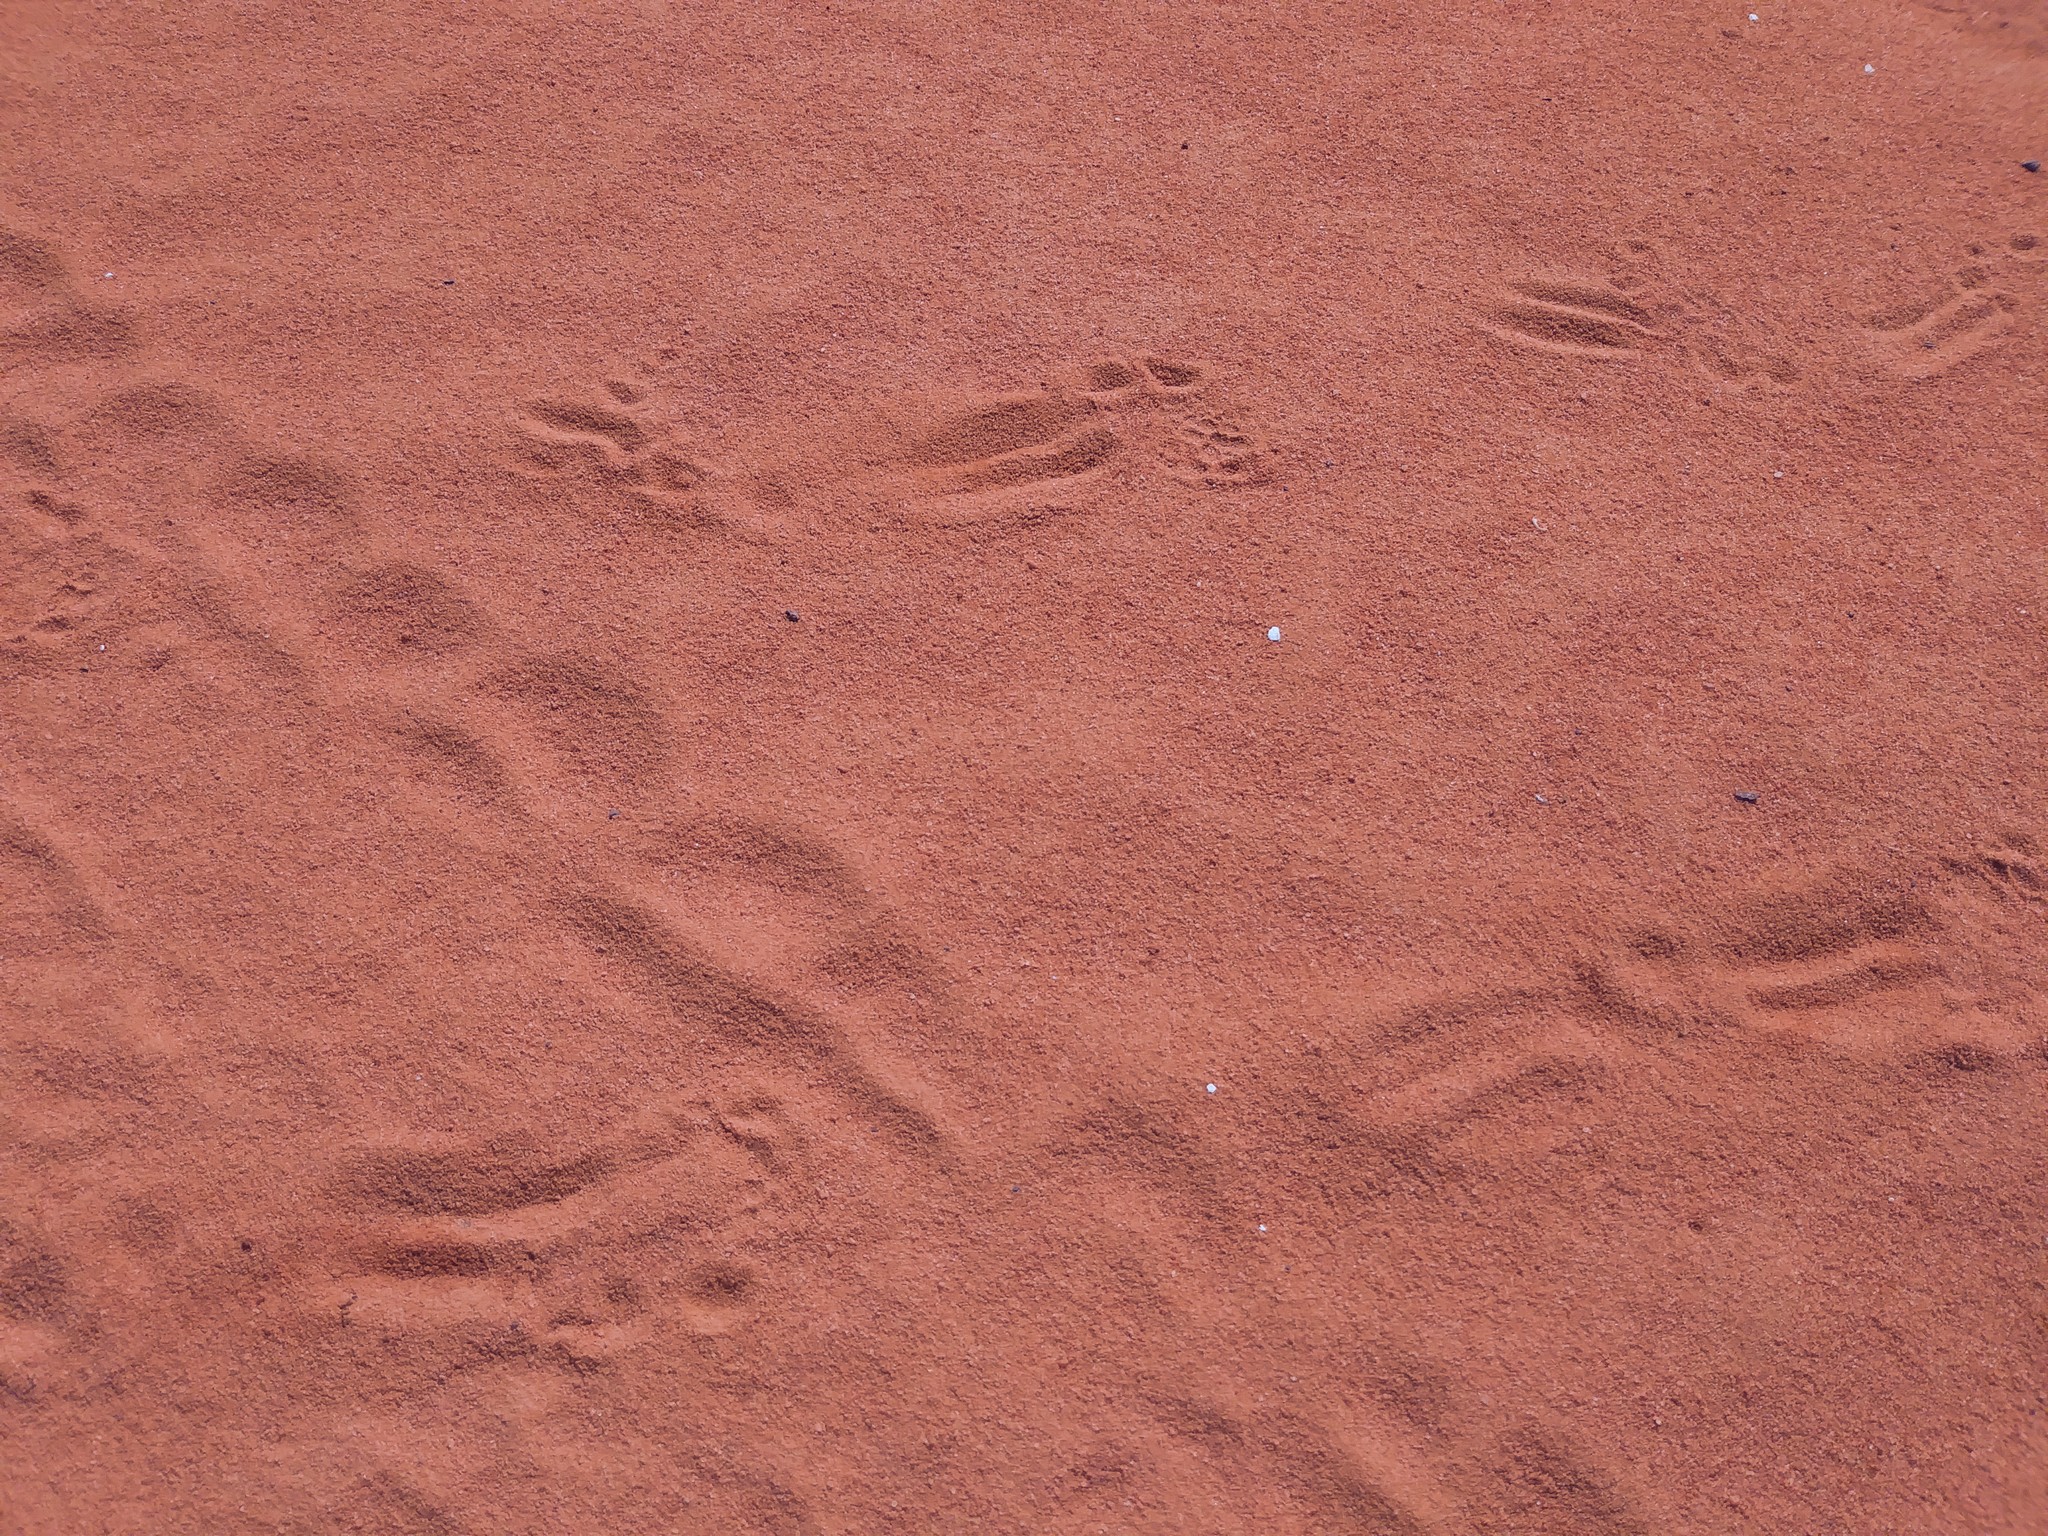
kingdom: Animalia
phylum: Chordata
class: Testudines
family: Testudinidae
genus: Gopherus
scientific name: Gopherus polyphemus
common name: Florida gopher tortoise
